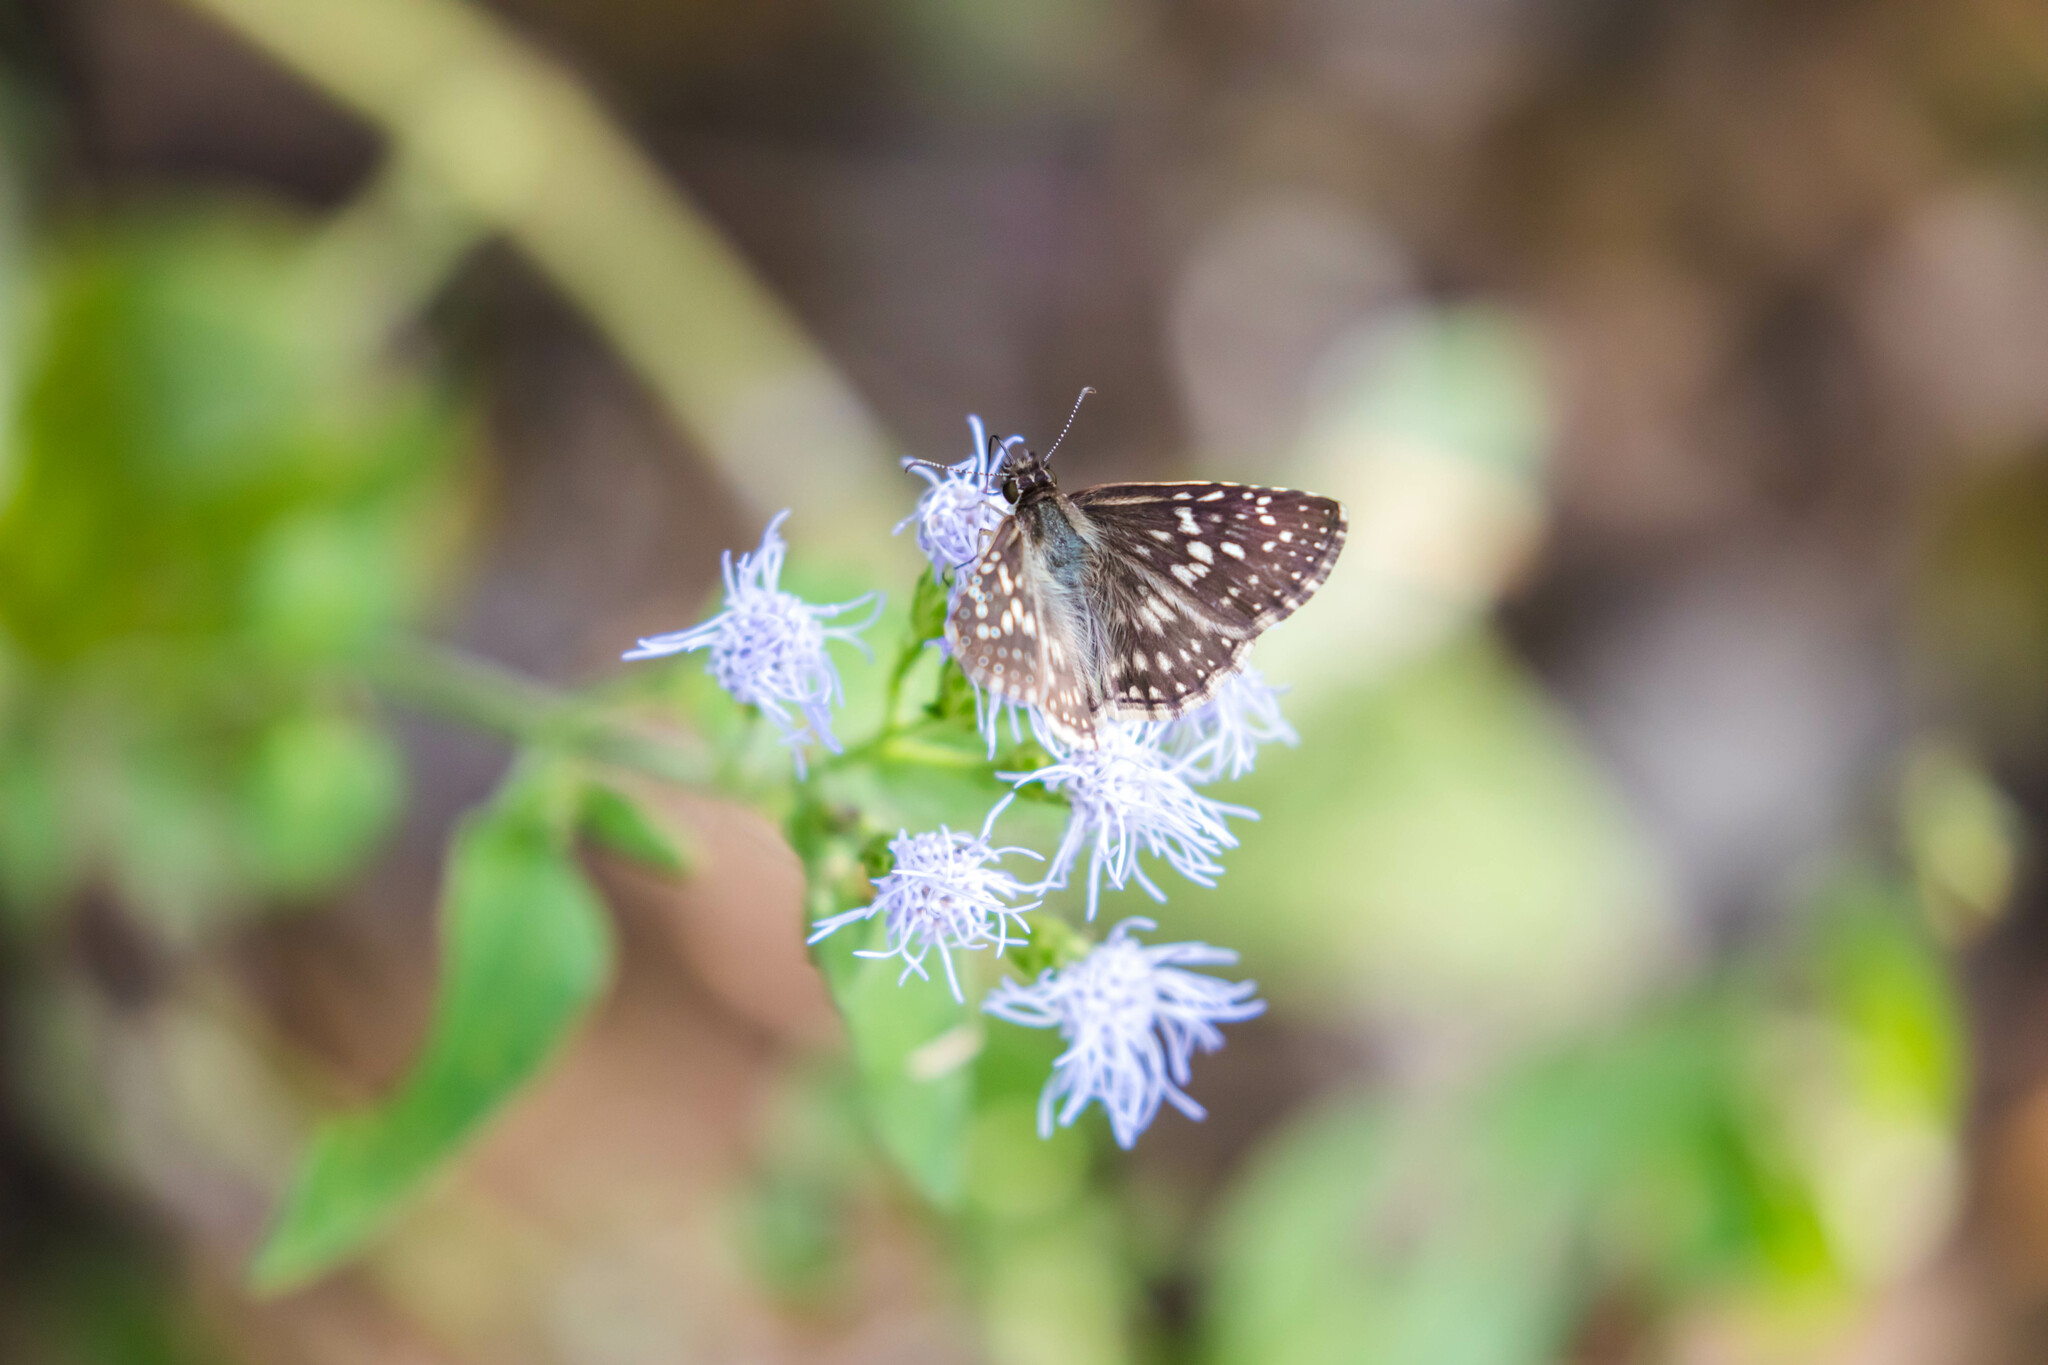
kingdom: Animalia
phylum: Arthropoda
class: Insecta
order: Lepidoptera
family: Hesperiidae
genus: Pyrgus
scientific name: Pyrgus oileus
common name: Tropical checkered-skipper
